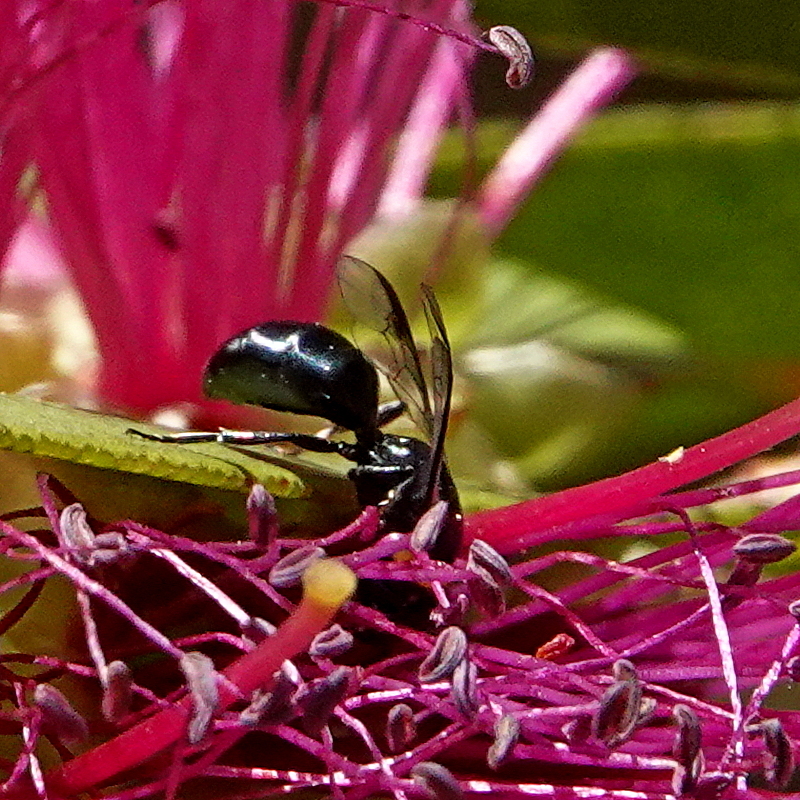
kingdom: Animalia
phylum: Arthropoda
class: Insecta
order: Hymenoptera
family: Colletidae
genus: Hylaeus
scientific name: Hylaeus primulipictus
